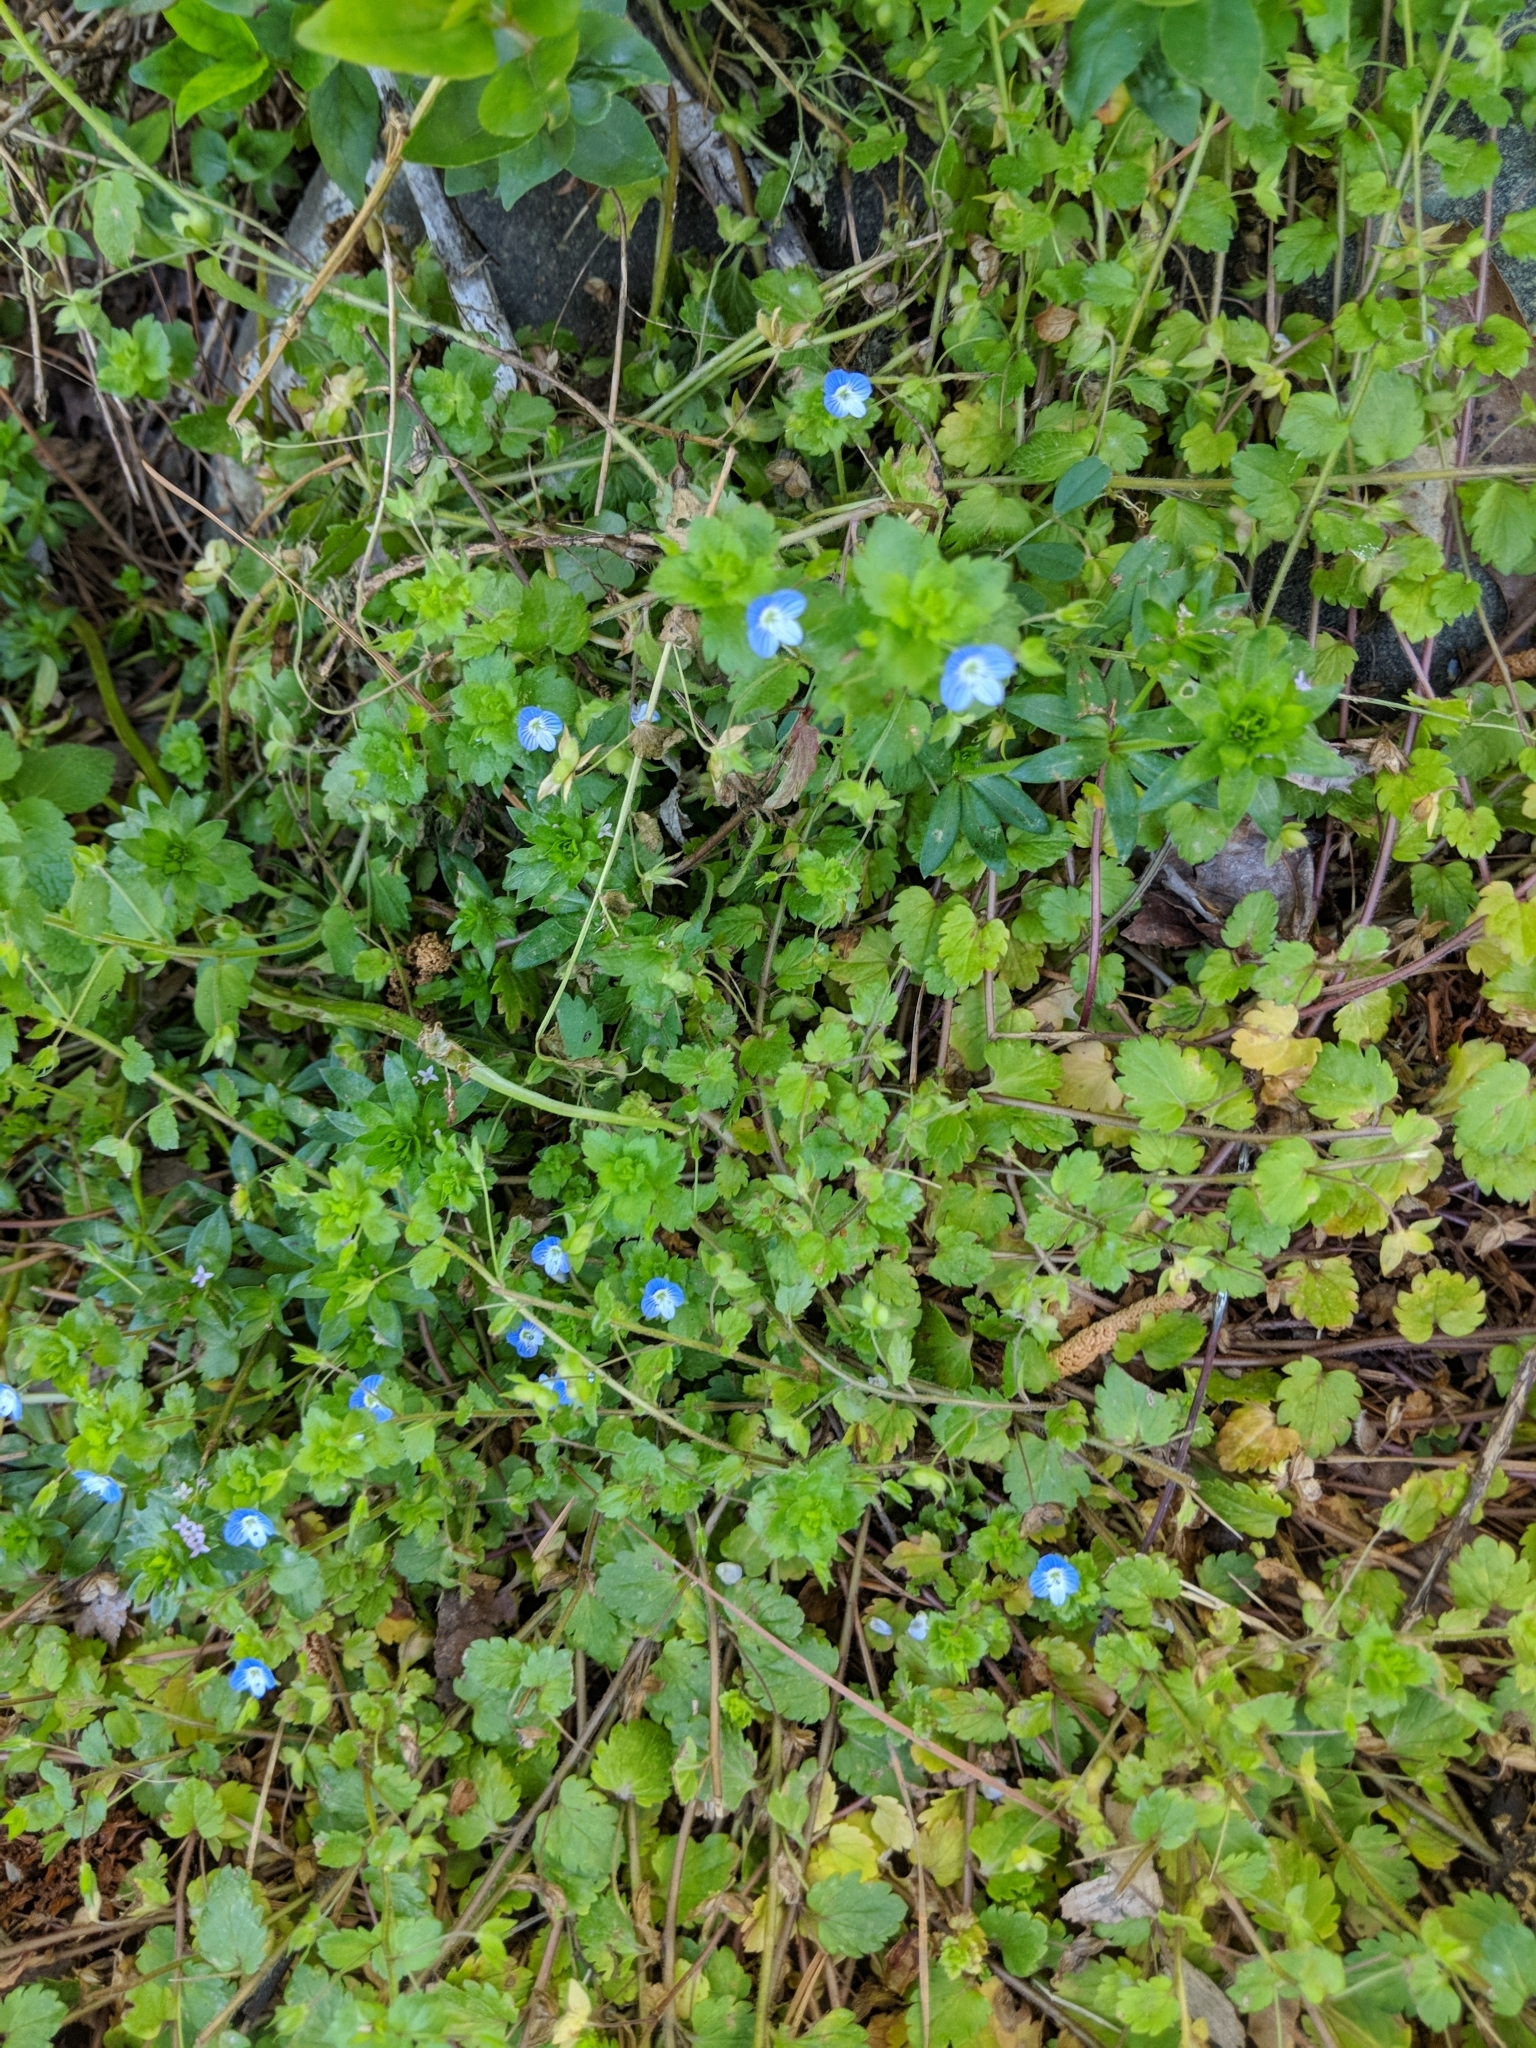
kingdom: Plantae
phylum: Tracheophyta
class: Magnoliopsida
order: Lamiales
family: Plantaginaceae
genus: Veronica
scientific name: Veronica persica
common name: Common field-speedwell
